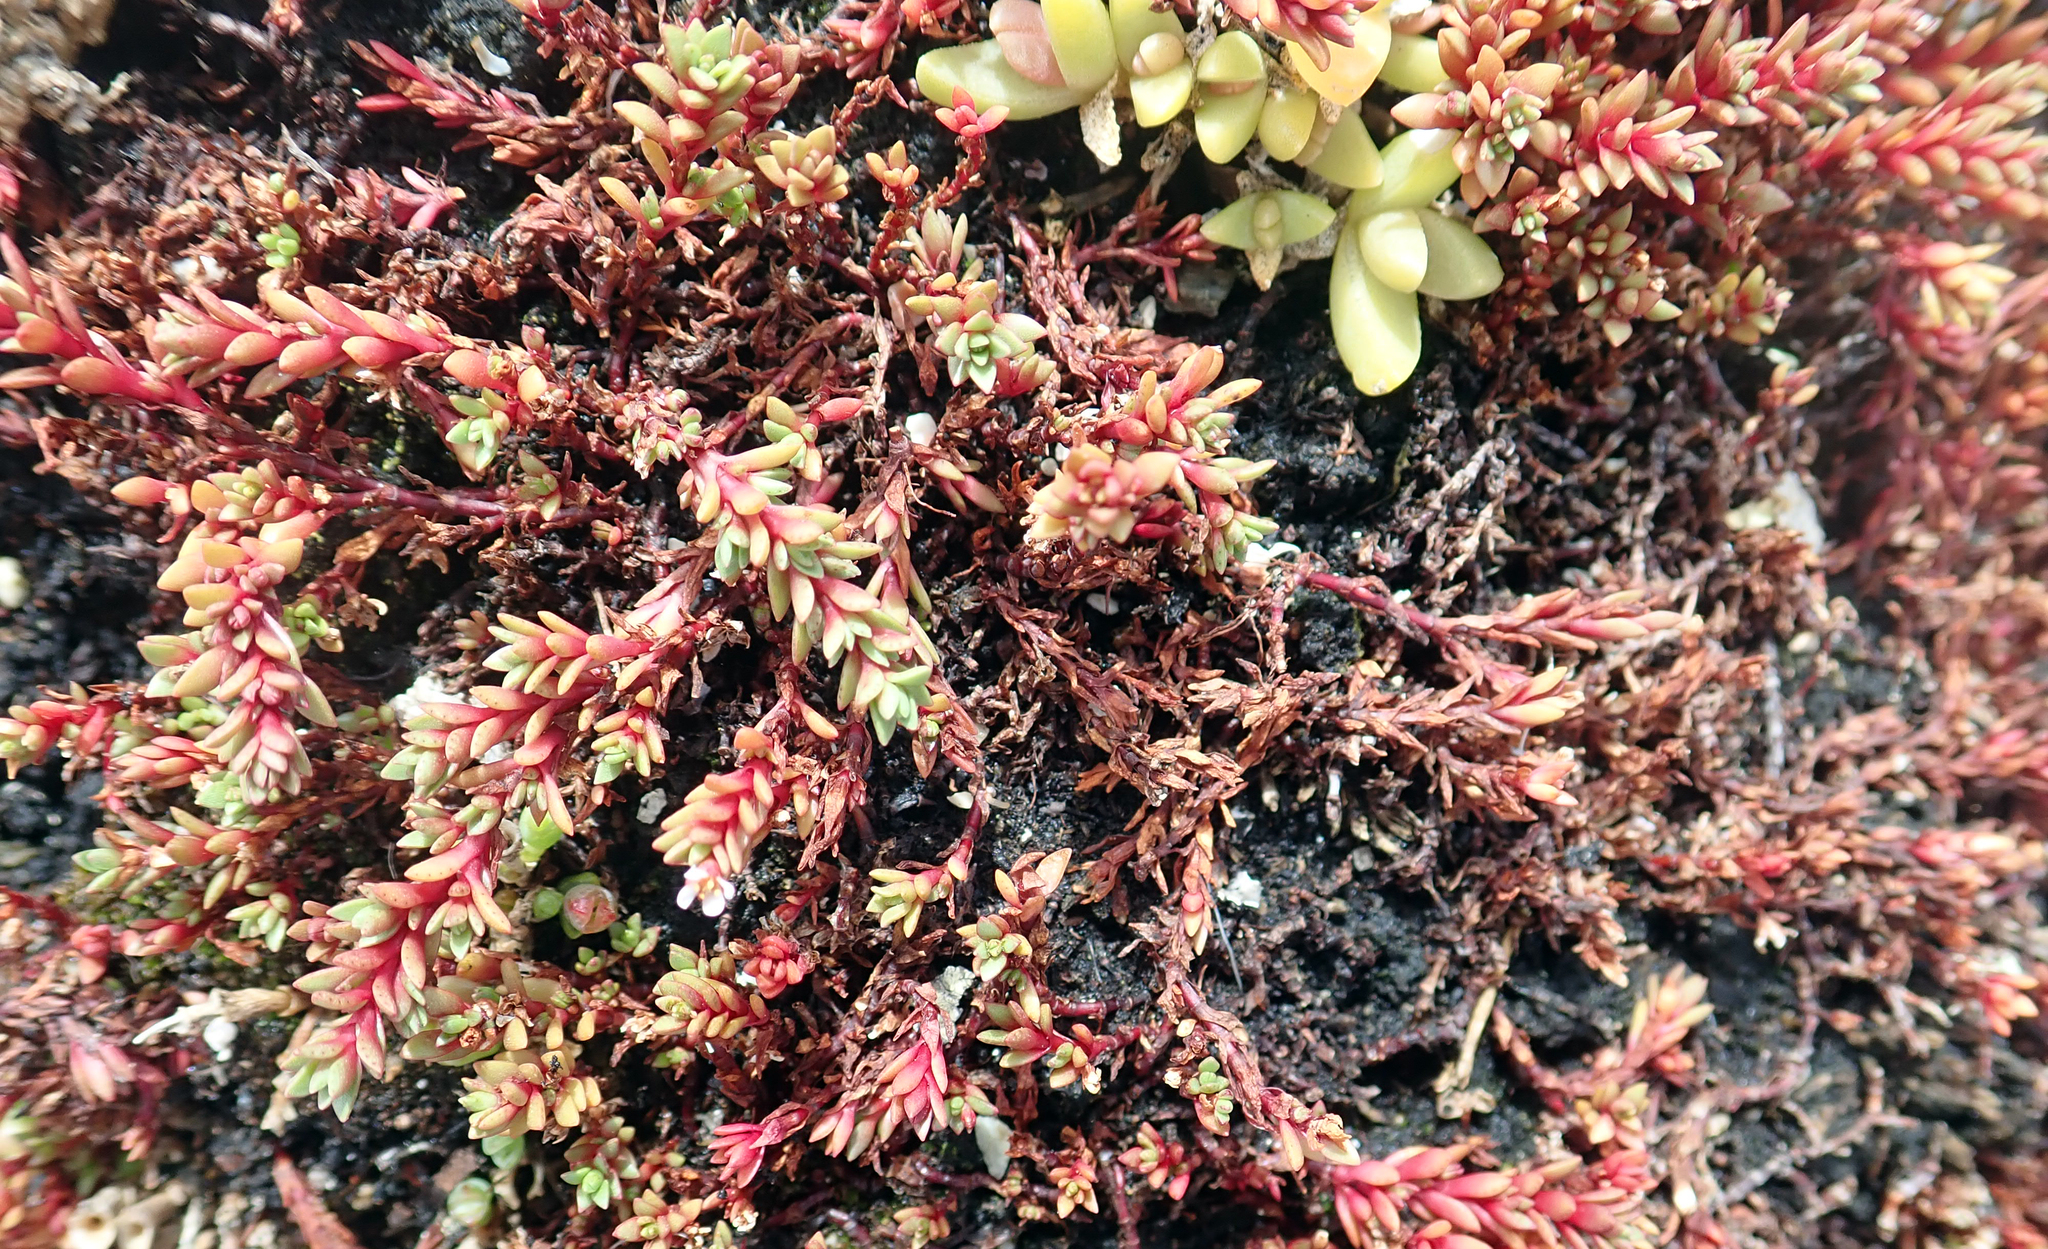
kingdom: Plantae
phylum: Tracheophyta
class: Magnoliopsida
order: Saxifragales
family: Crassulaceae
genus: Crassula
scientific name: Crassula moschata
